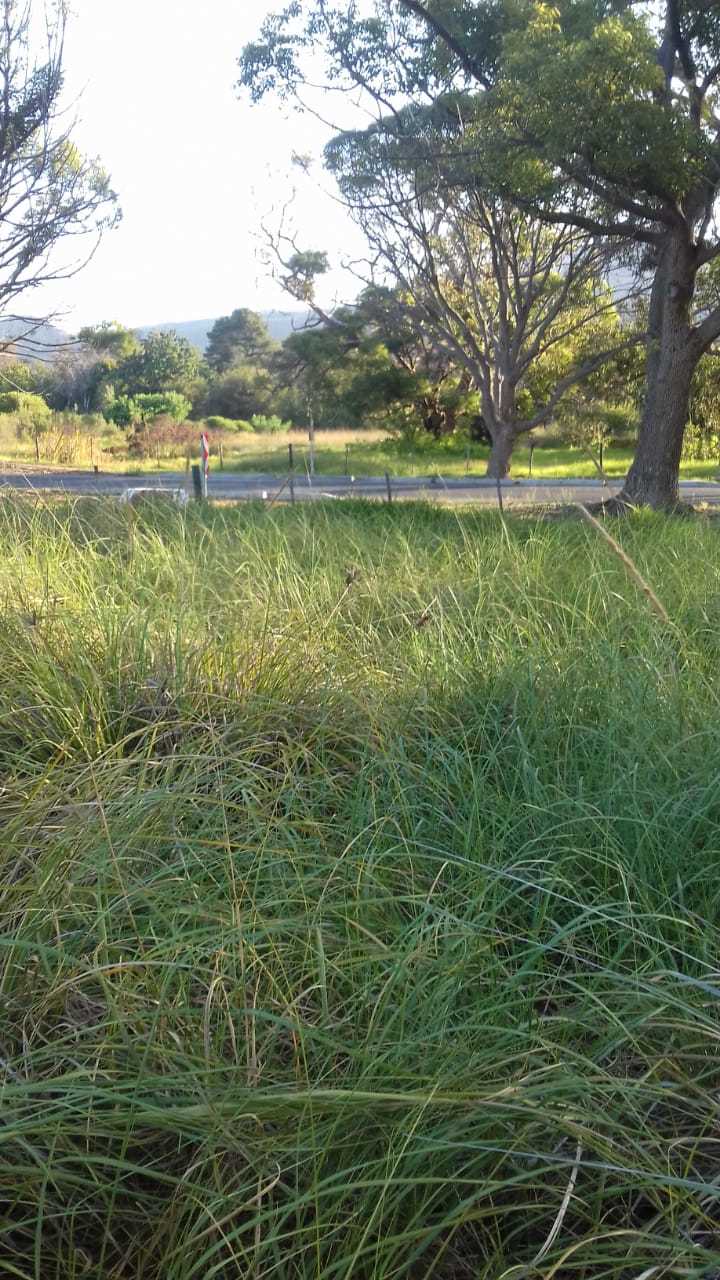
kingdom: Animalia
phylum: Chordata
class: Squamata
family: Chamaeleonidae
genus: Bradypodion
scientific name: Bradypodion pumilum
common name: Cape dwarf chameleon
